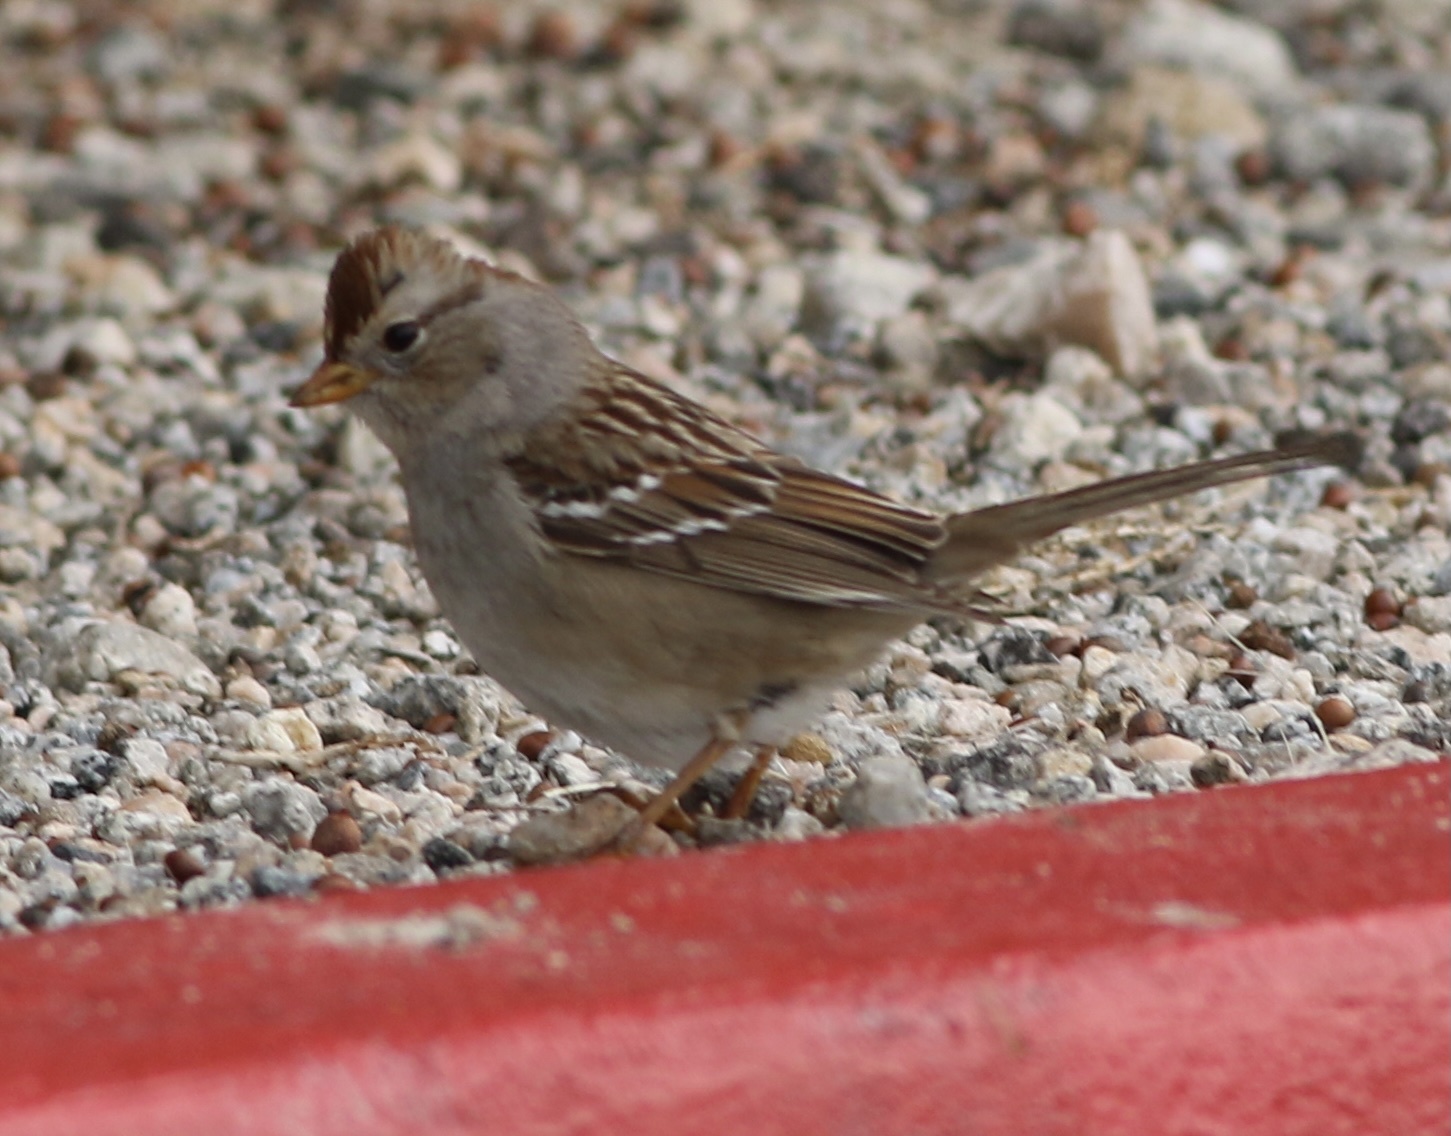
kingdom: Animalia
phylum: Chordata
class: Aves
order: Passeriformes
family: Passerellidae
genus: Zonotrichia
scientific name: Zonotrichia leucophrys
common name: White-crowned sparrow
